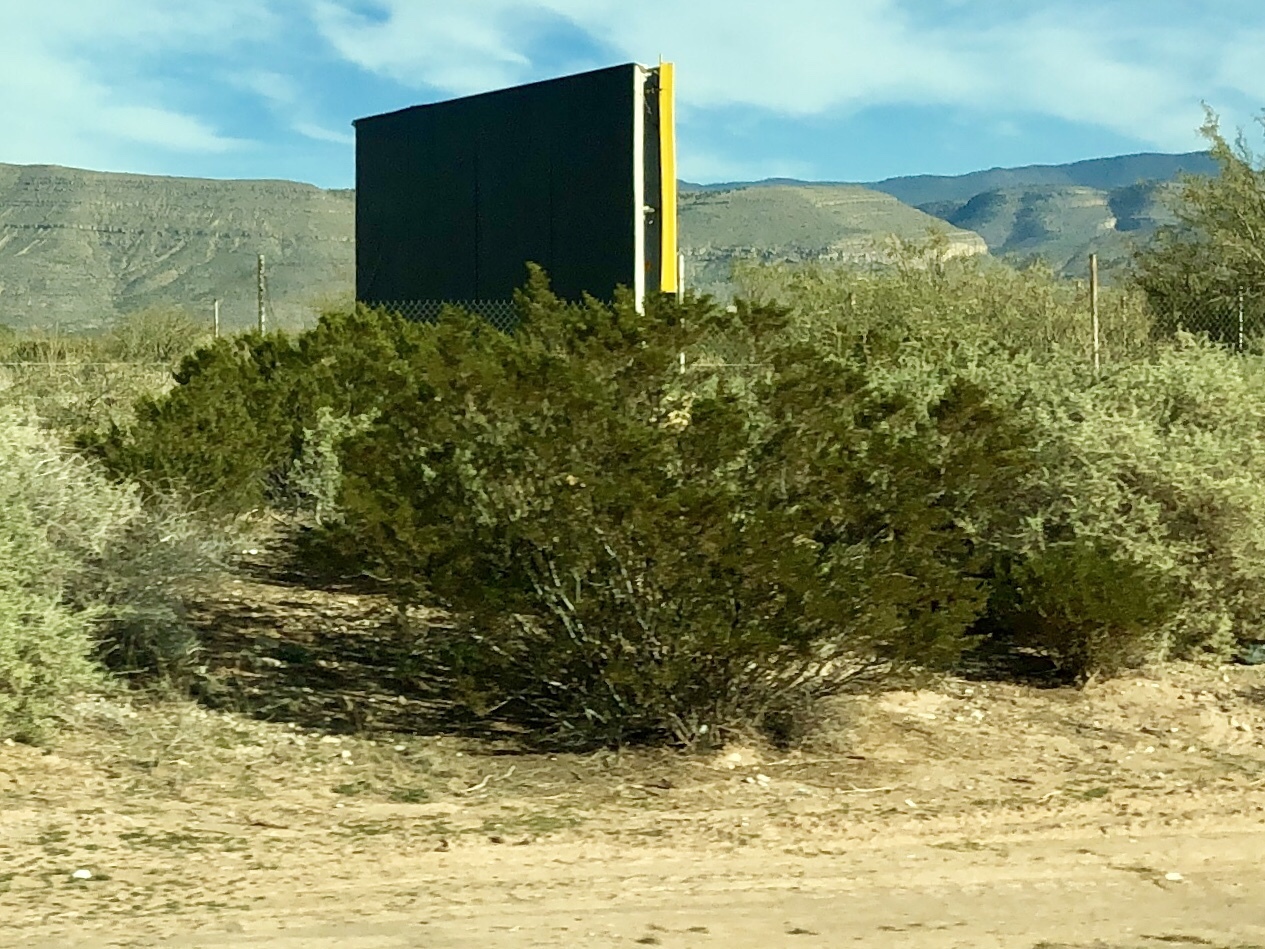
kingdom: Plantae
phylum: Tracheophyta
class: Magnoliopsida
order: Zygophyllales
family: Zygophyllaceae
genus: Larrea
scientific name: Larrea tridentata
